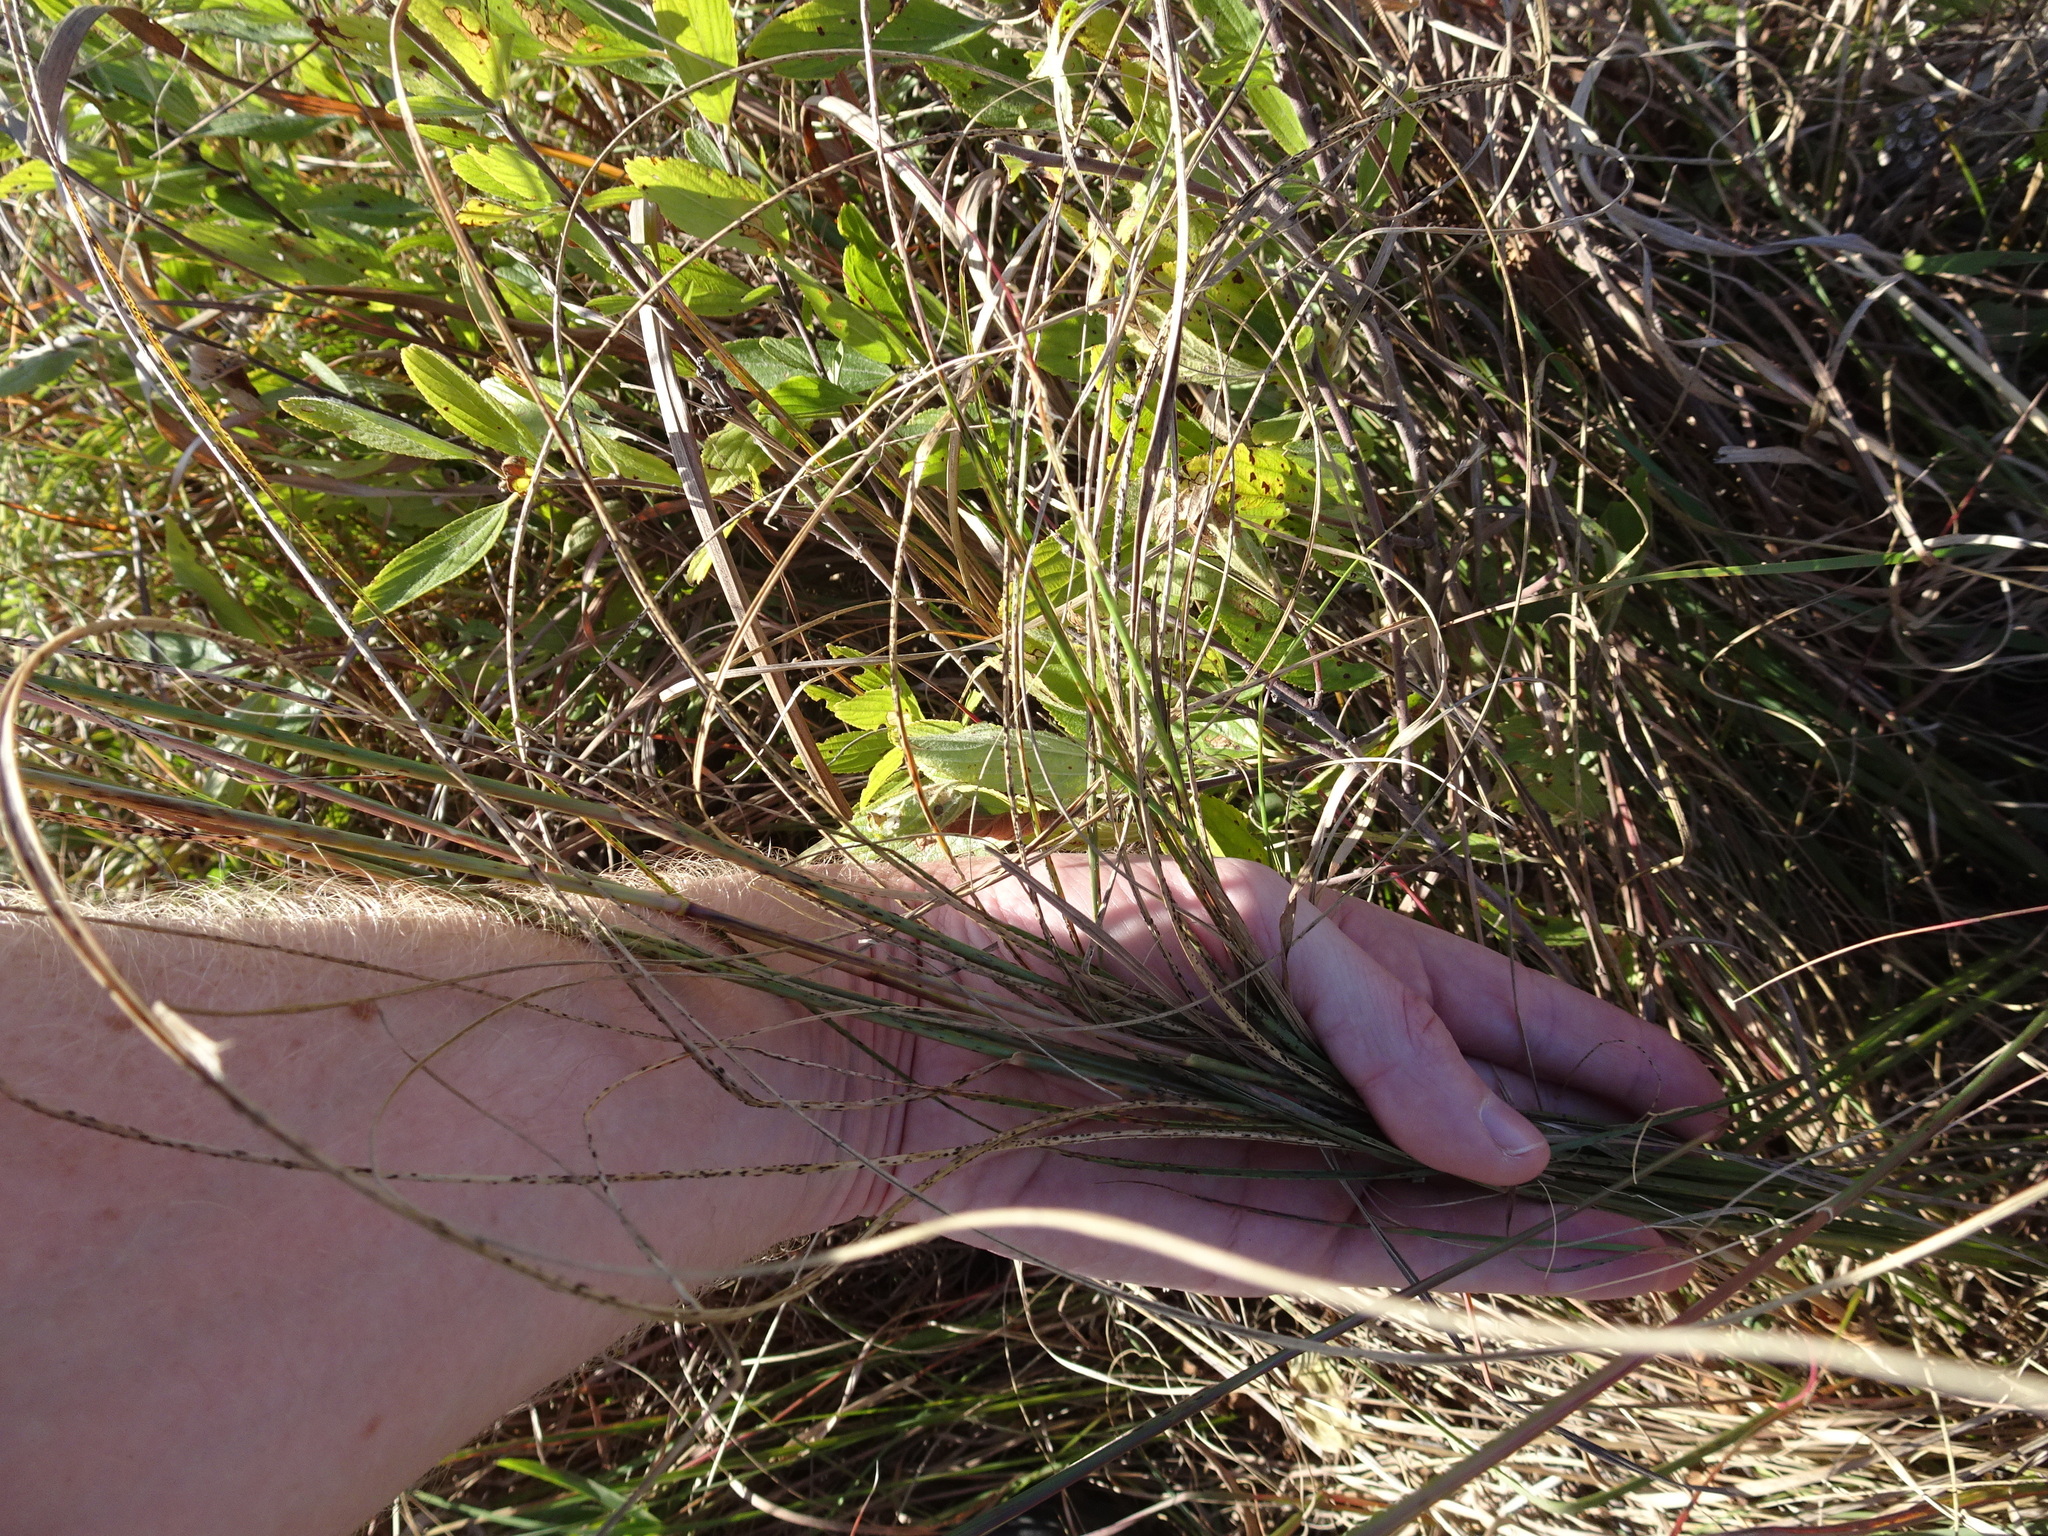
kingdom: Plantae
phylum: Tracheophyta
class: Liliopsida
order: Poales
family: Poaceae
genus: Sporobolus
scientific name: Sporobolus compositus
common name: Rough dropseed
